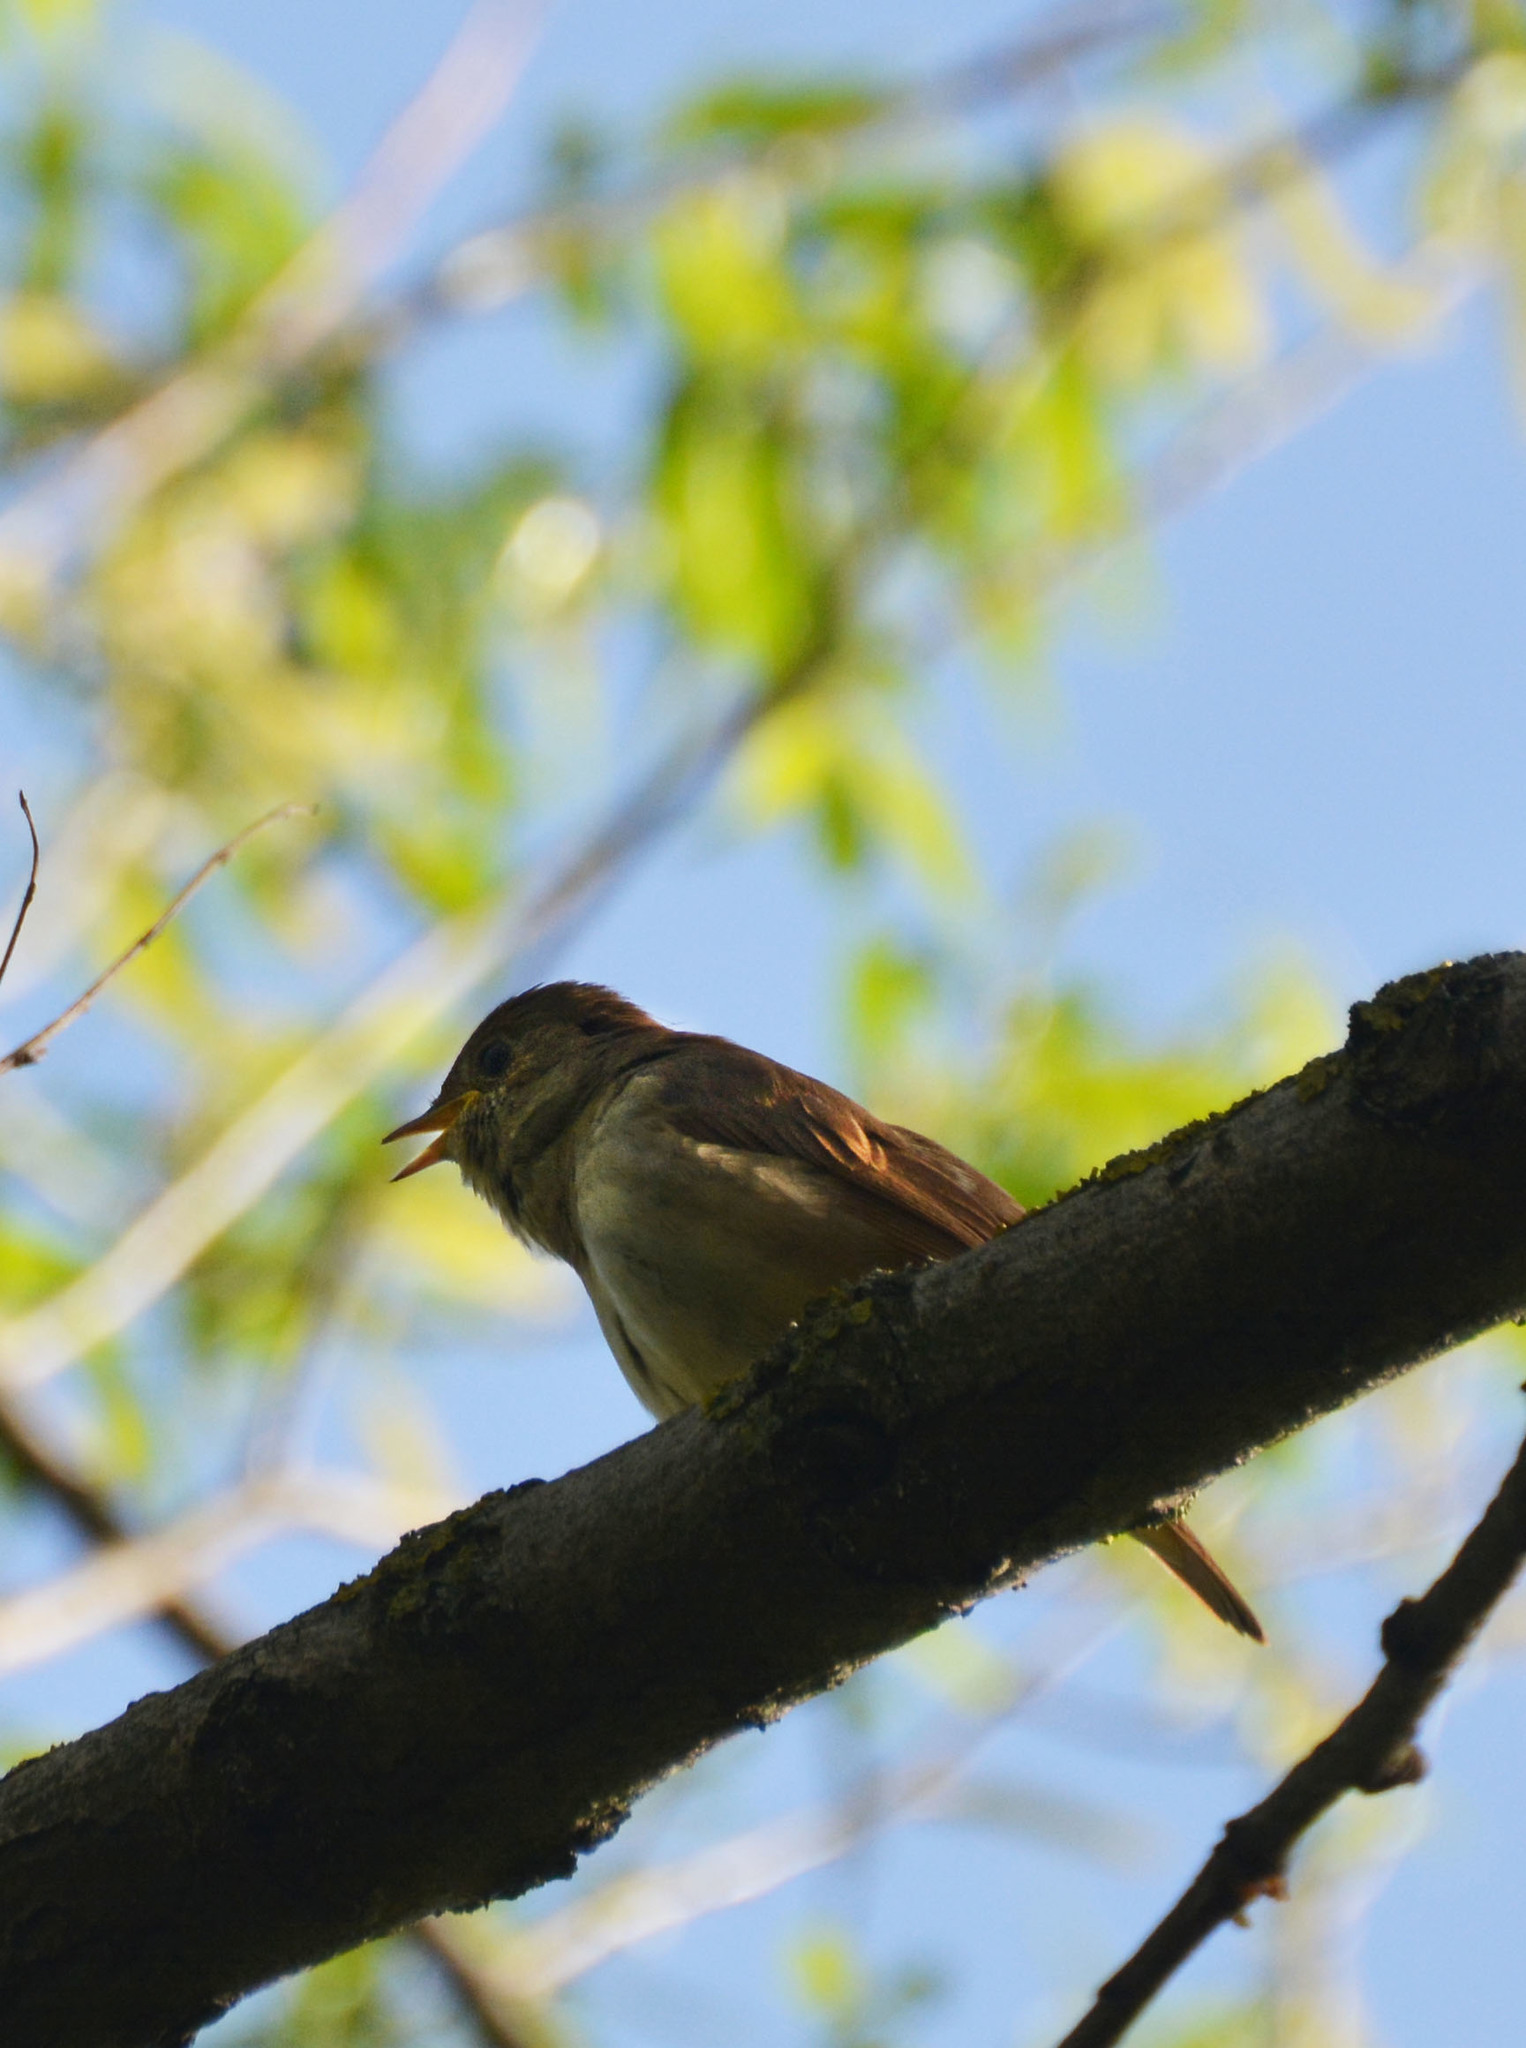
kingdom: Animalia
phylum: Chordata
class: Aves
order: Passeriformes
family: Muscicapidae
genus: Luscinia
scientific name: Luscinia luscinia
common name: Thrush nightingale
